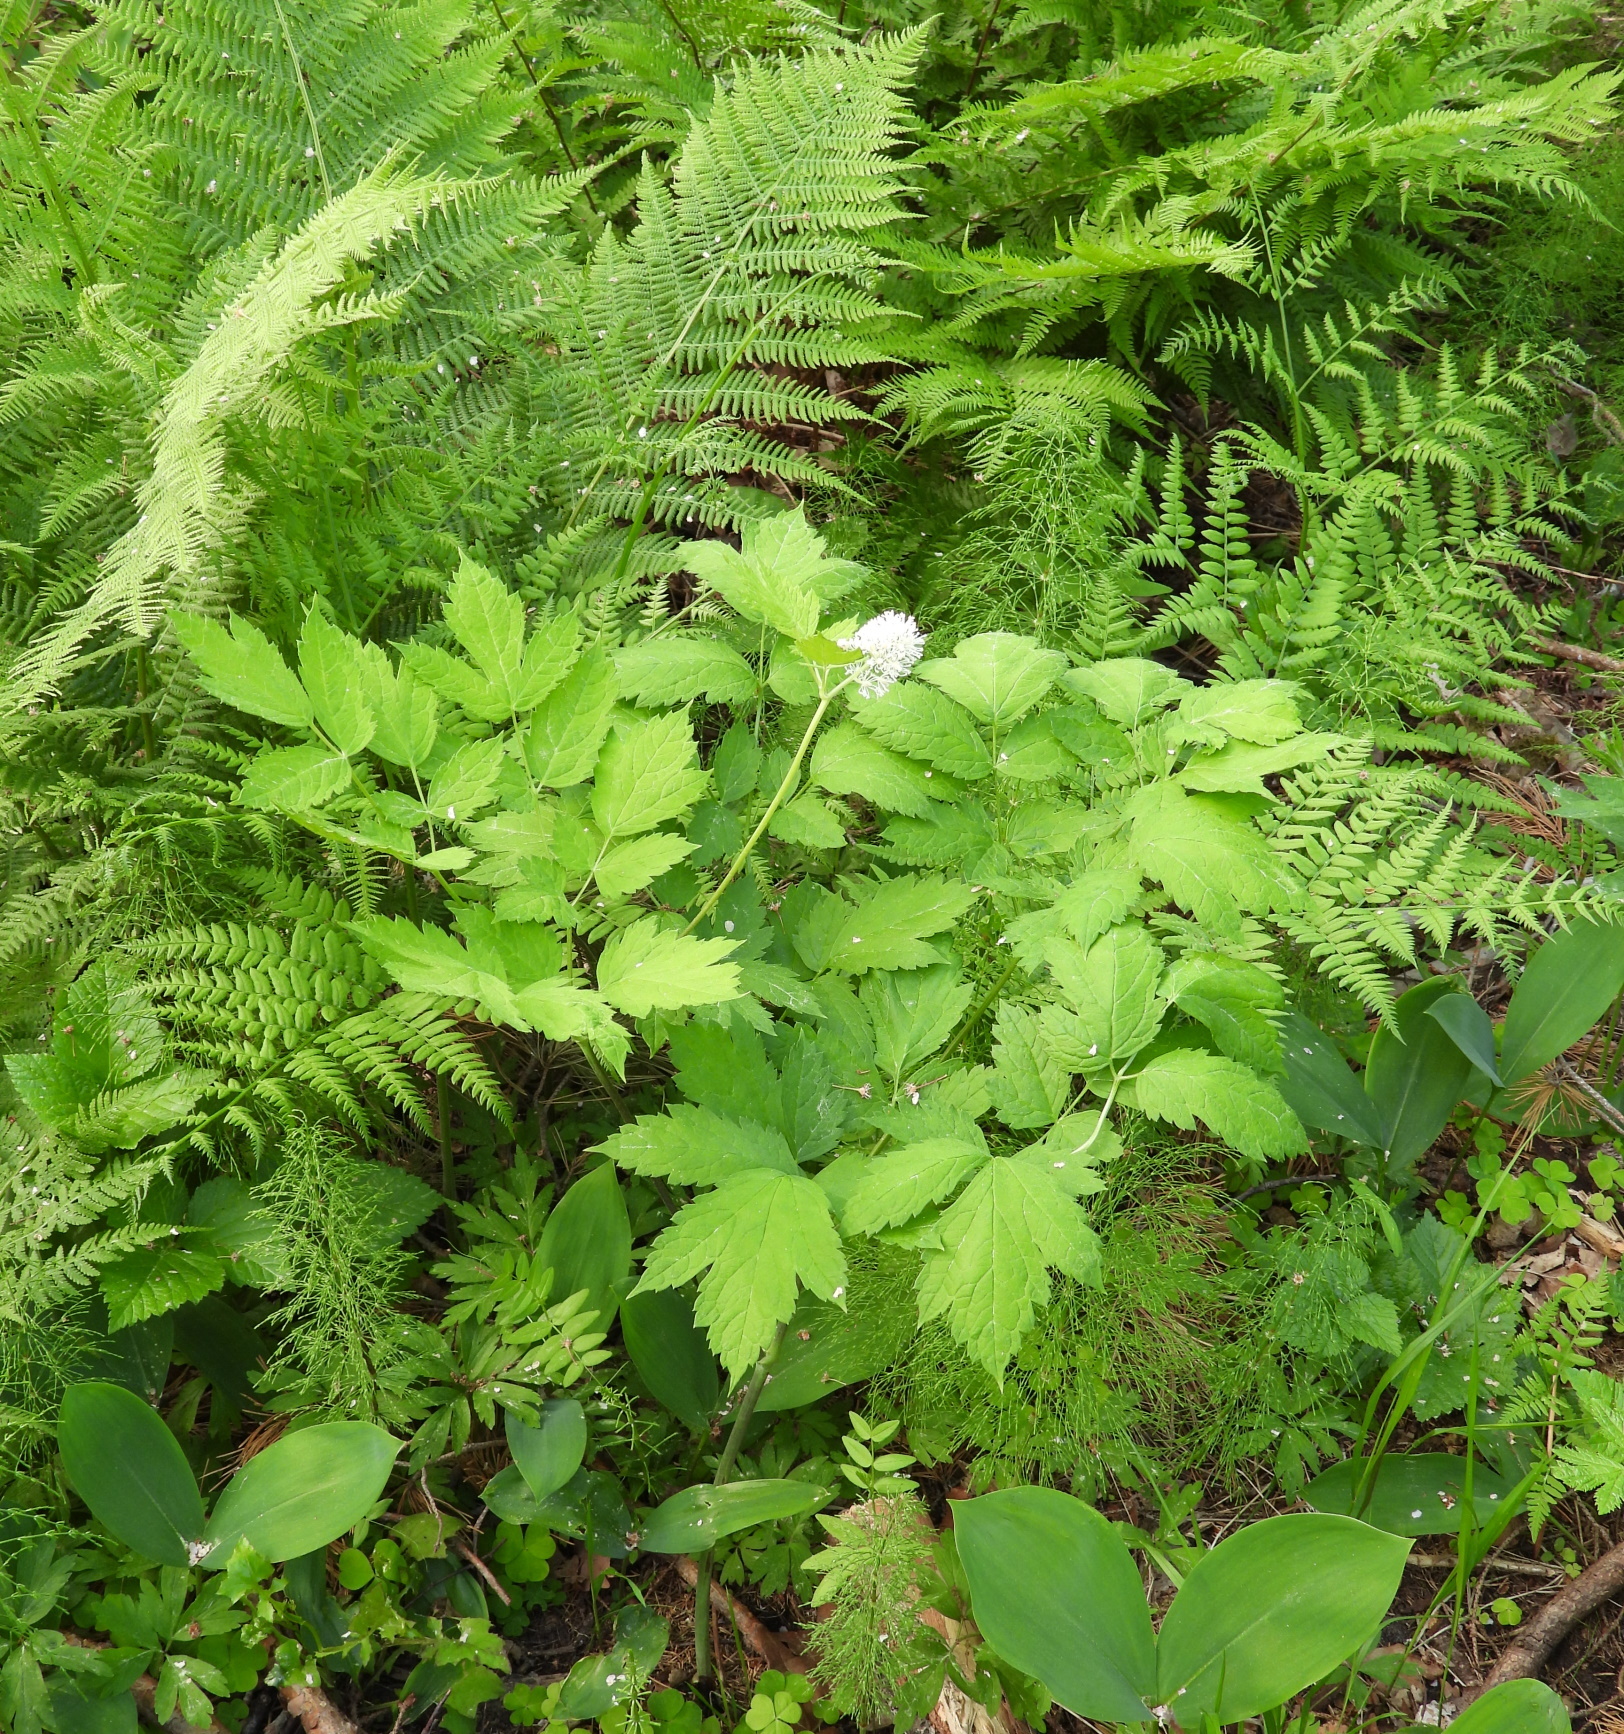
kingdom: Plantae
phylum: Tracheophyta
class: Magnoliopsida
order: Ranunculales
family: Ranunculaceae
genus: Actaea
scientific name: Actaea spicata
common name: Baneberry
